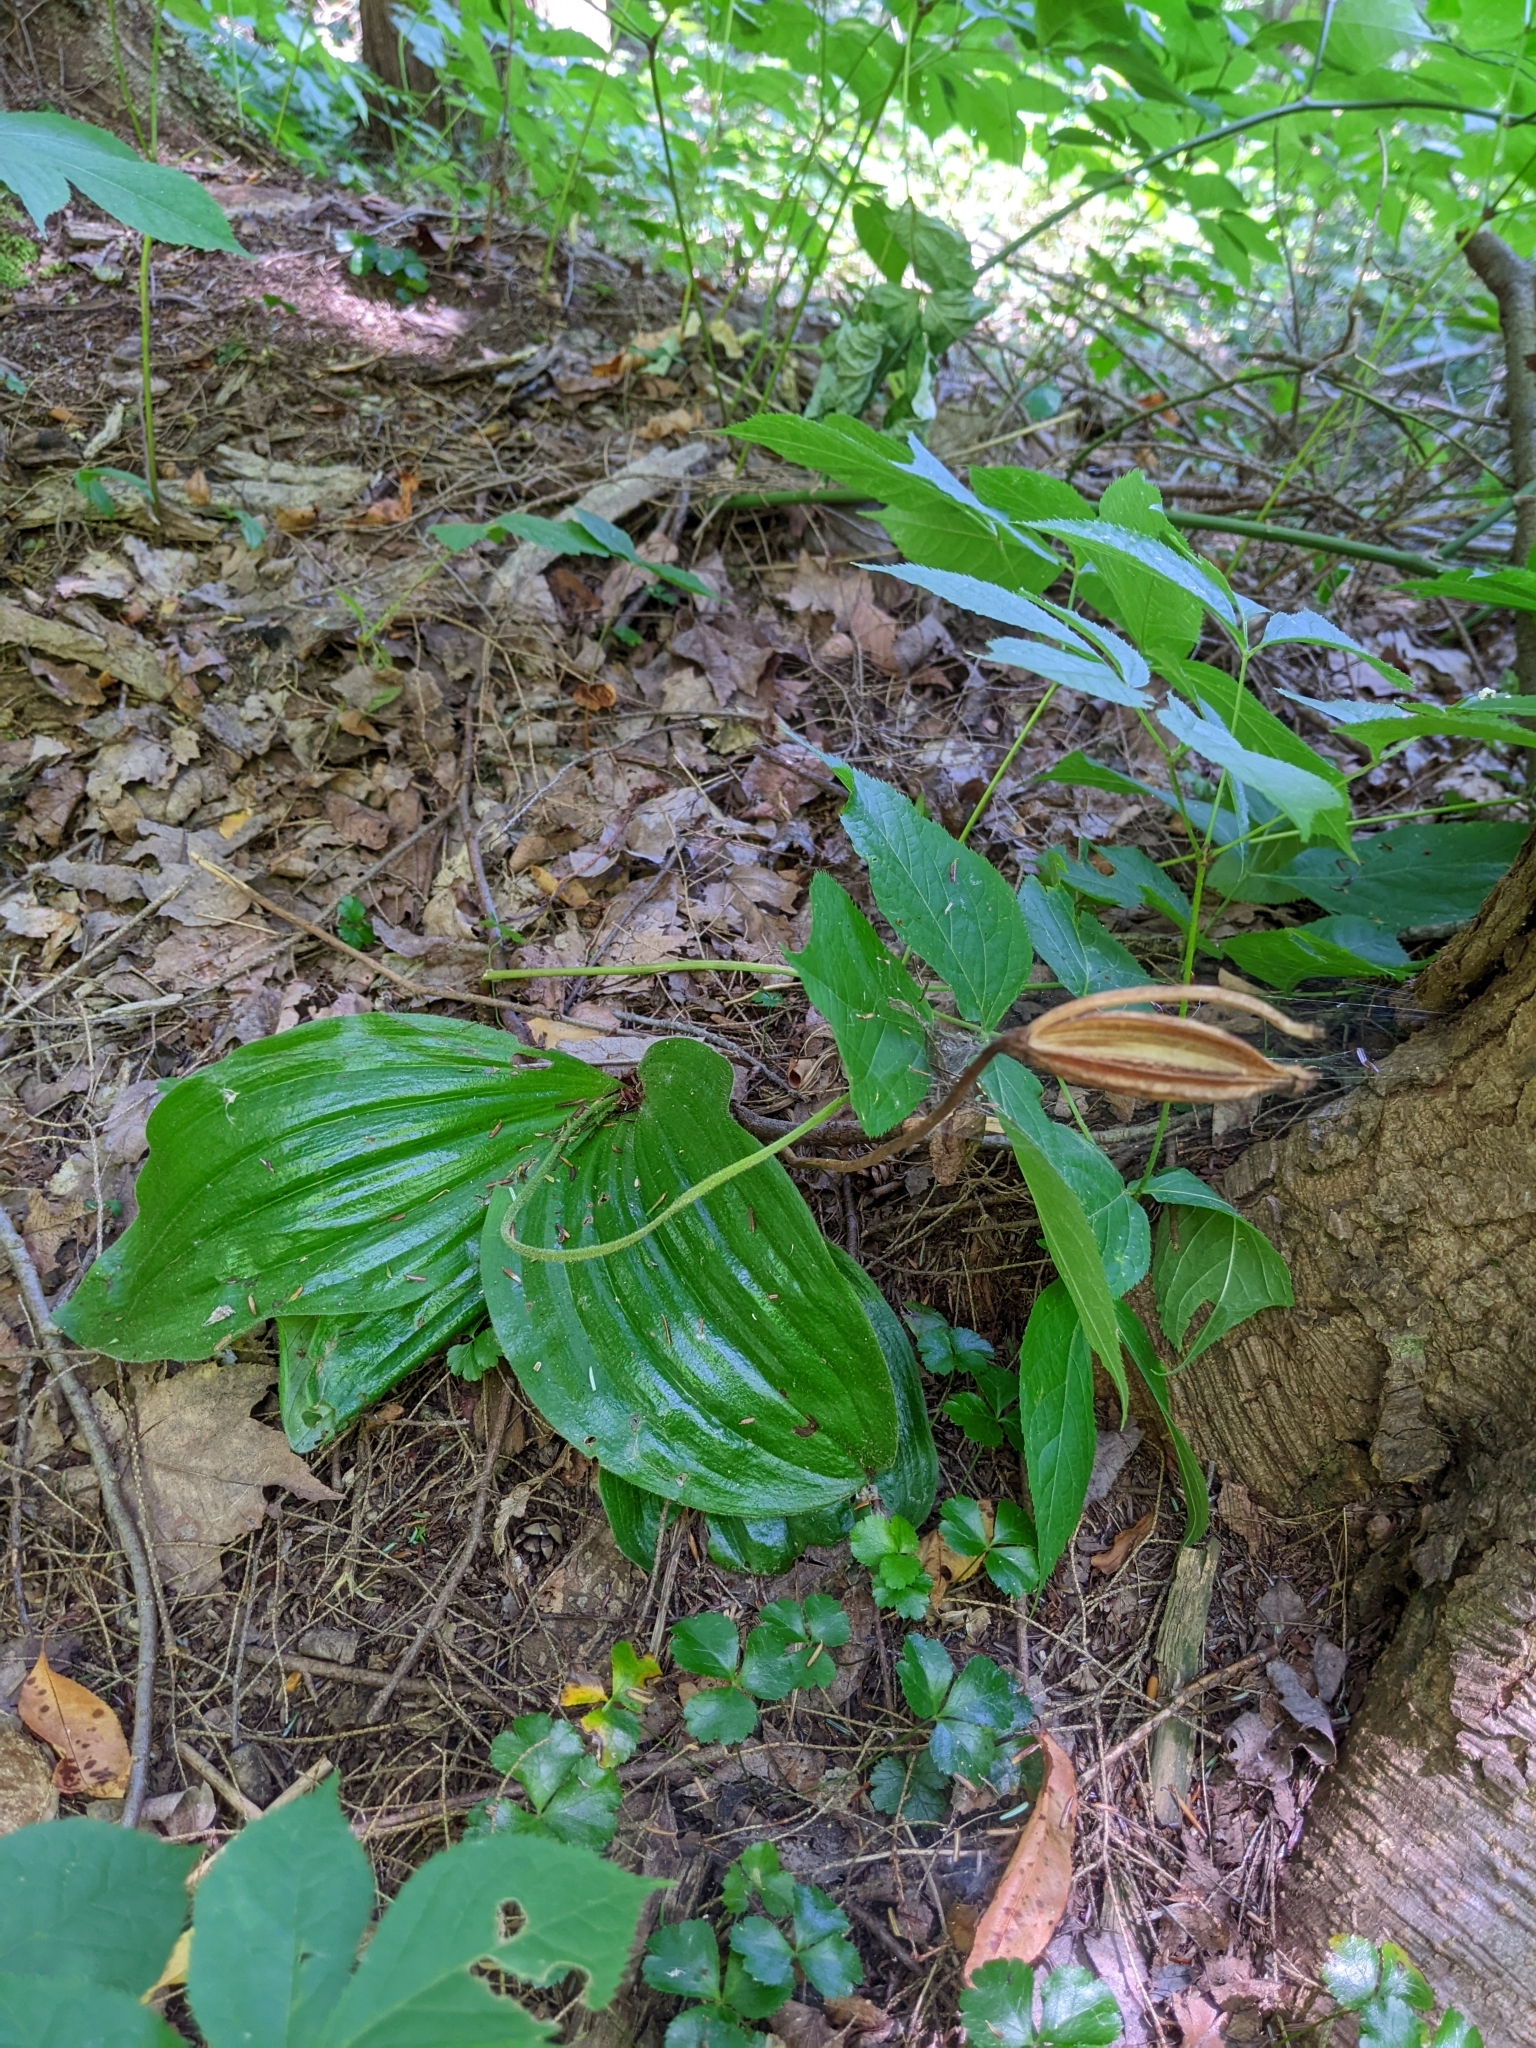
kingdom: Plantae
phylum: Tracheophyta
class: Liliopsida
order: Asparagales
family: Orchidaceae
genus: Cypripedium
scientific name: Cypripedium acaule
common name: Pink lady's-slipper
